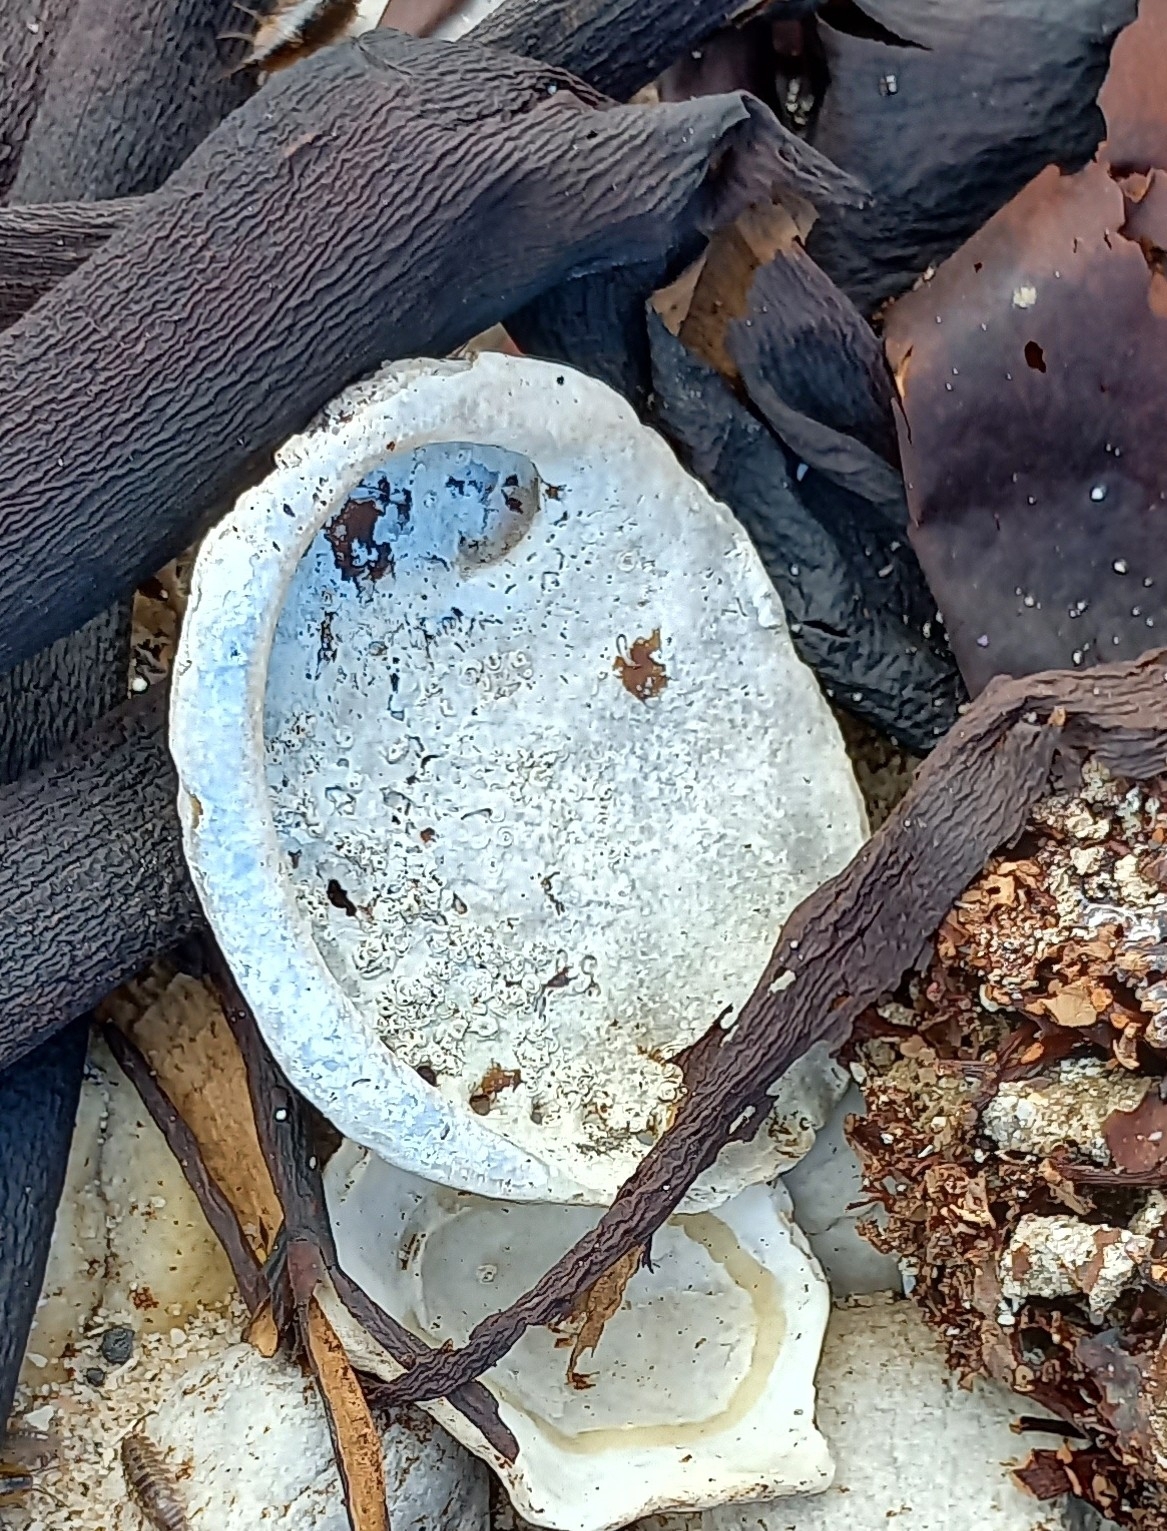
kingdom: Animalia
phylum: Mollusca
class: Gastropoda
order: Lepetellida
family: Haliotidae
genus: Haliotis
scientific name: Haliotis midae
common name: Perlemoen
